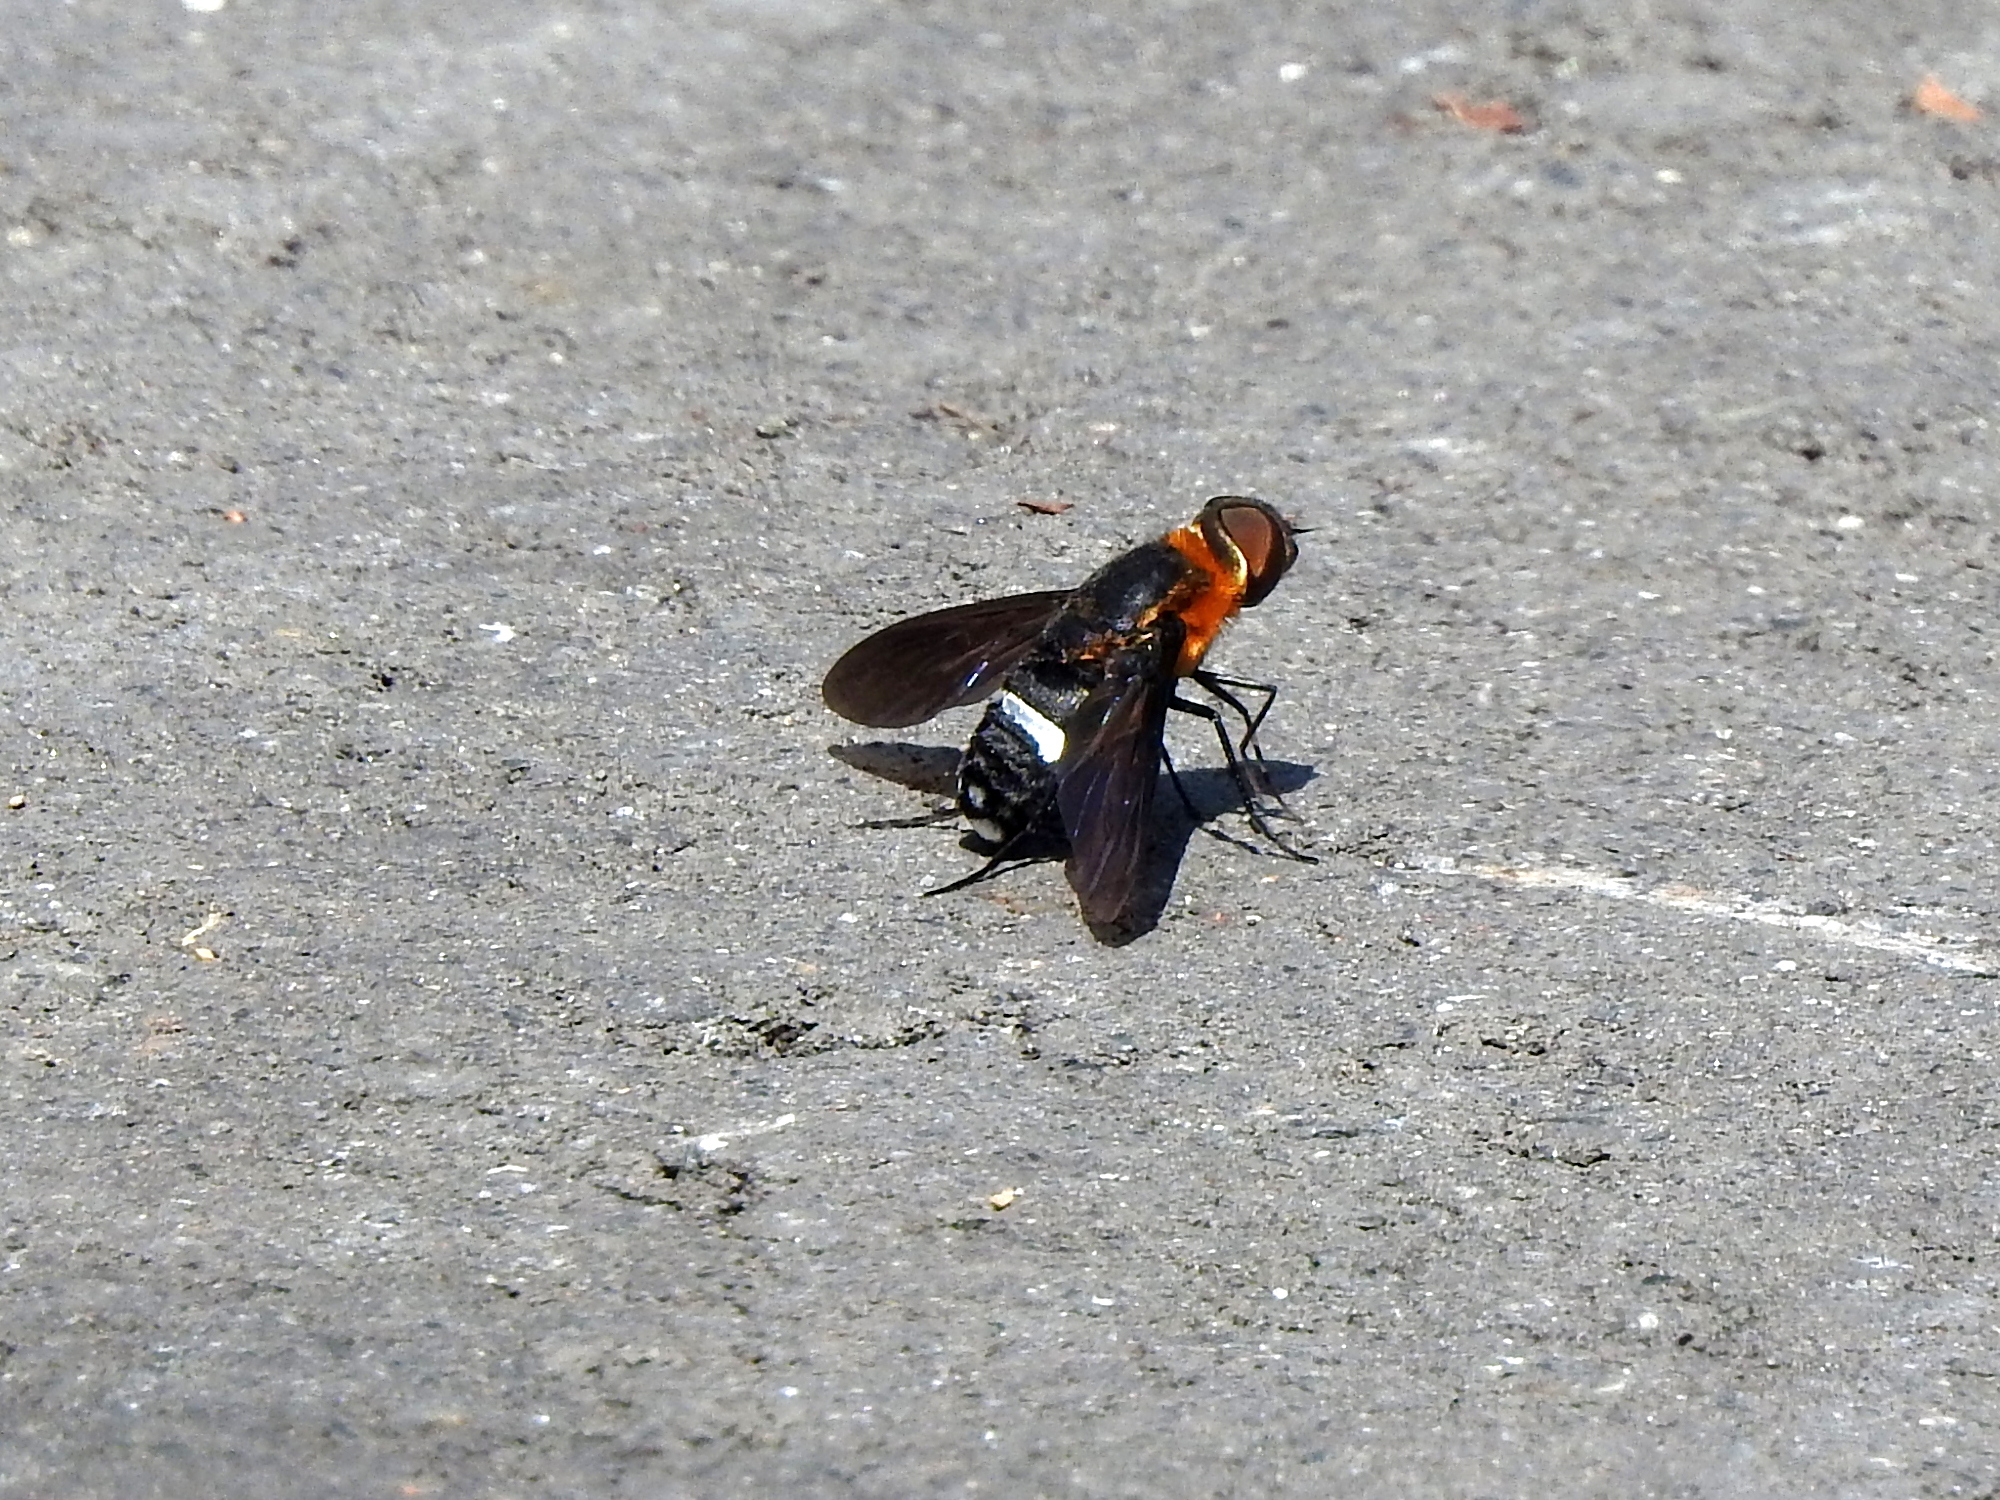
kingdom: Animalia
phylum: Arthropoda
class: Insecta
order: Diptera
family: Bombyliidae
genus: Ligyra
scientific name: Ligyra tantalus
